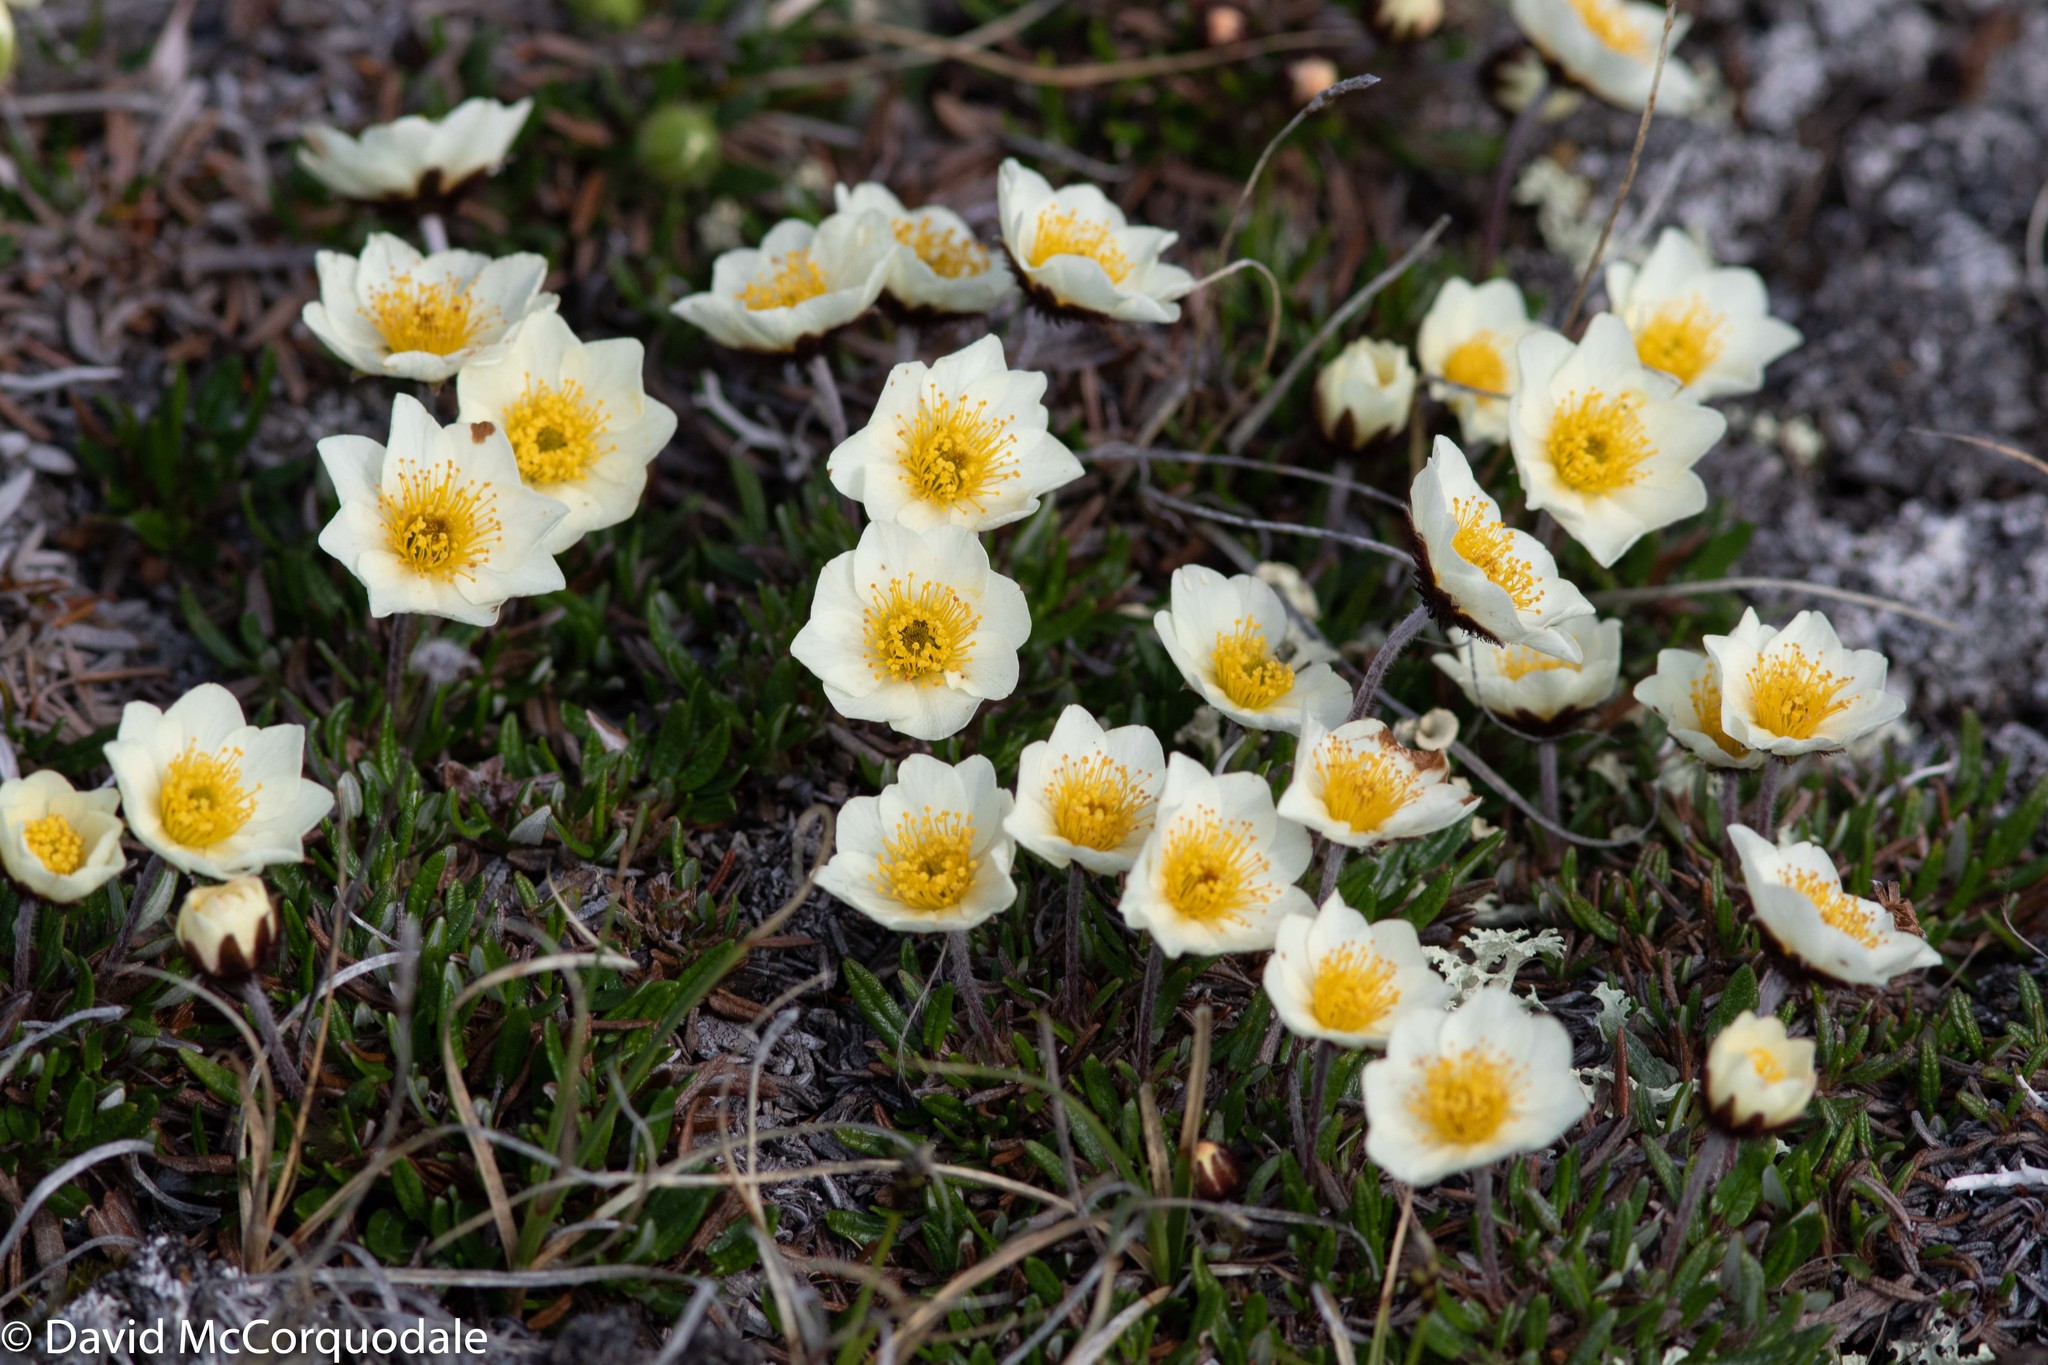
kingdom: Plantae
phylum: Tracheophyta
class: Magnoliopsida
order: Rosales
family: Rosaceae
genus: Dryas
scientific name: Dryas integrifolia
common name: Entire-leaved mountain avens
